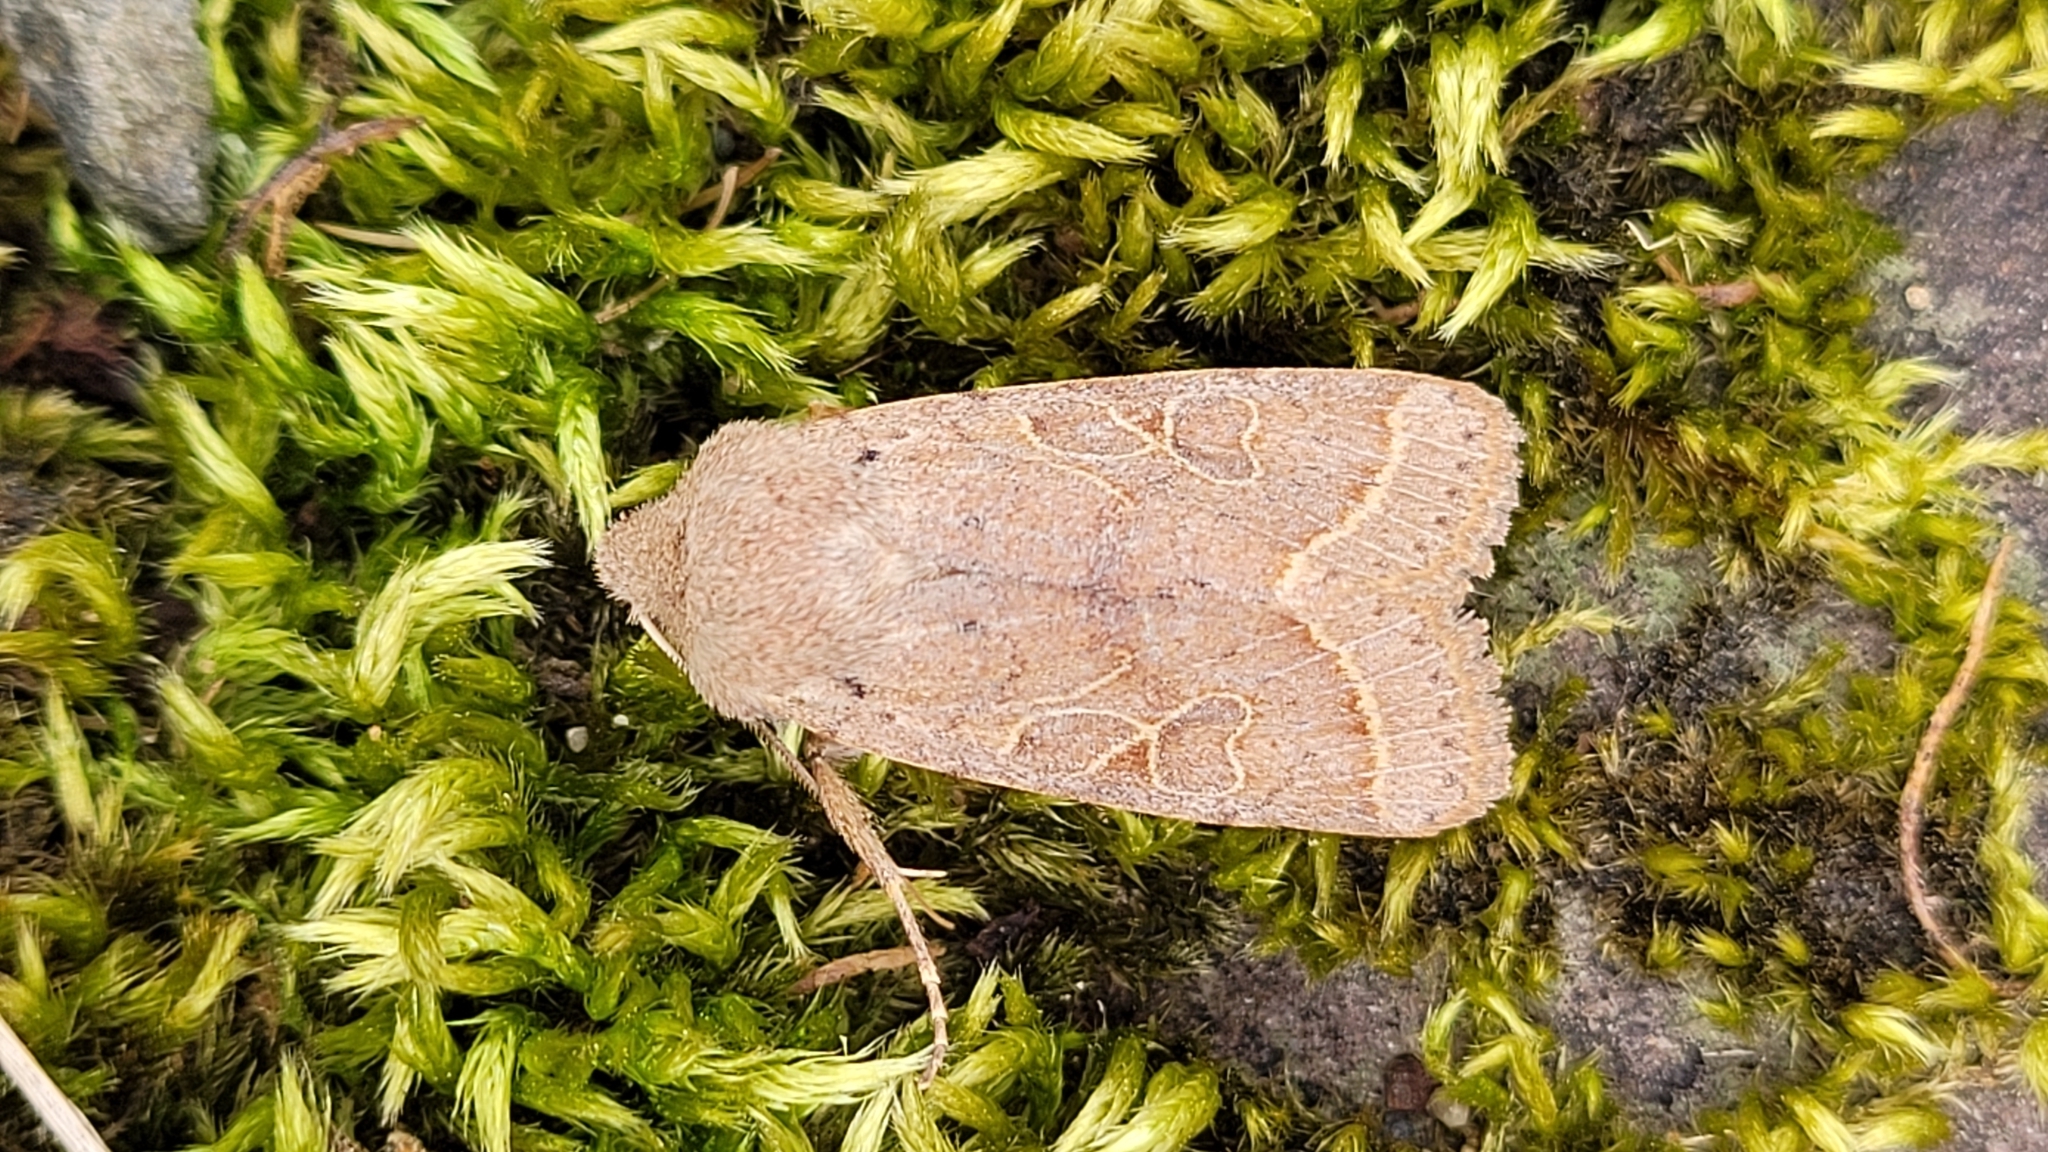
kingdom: Animalia
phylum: Arthropoda
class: Insecta
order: Lepidoptera
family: Noctuidae
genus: Orthosia
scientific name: Orthosia cerasi
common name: Common quaker
